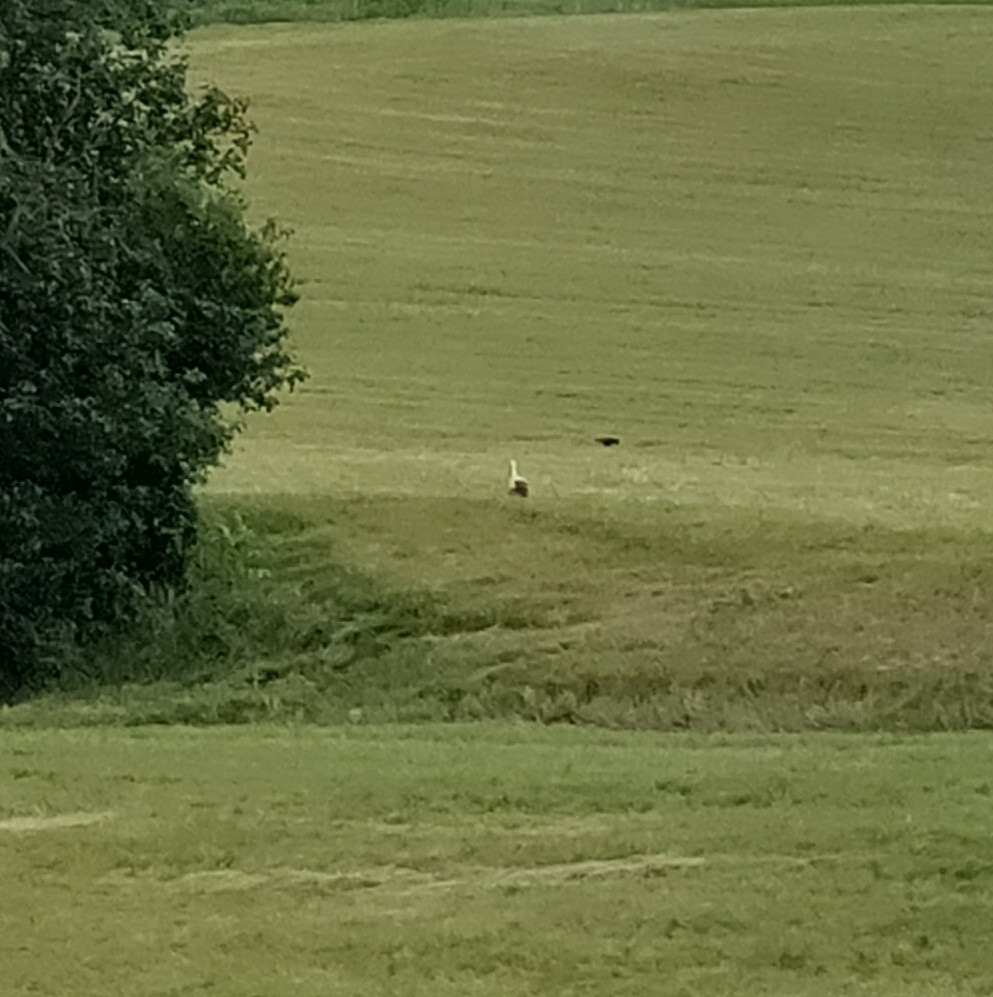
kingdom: Animalia
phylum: Chordata
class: Aves
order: Ciconiiformes
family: Ciconiidae
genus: Ciconia
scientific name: Ciconia ciconia
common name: White stork
